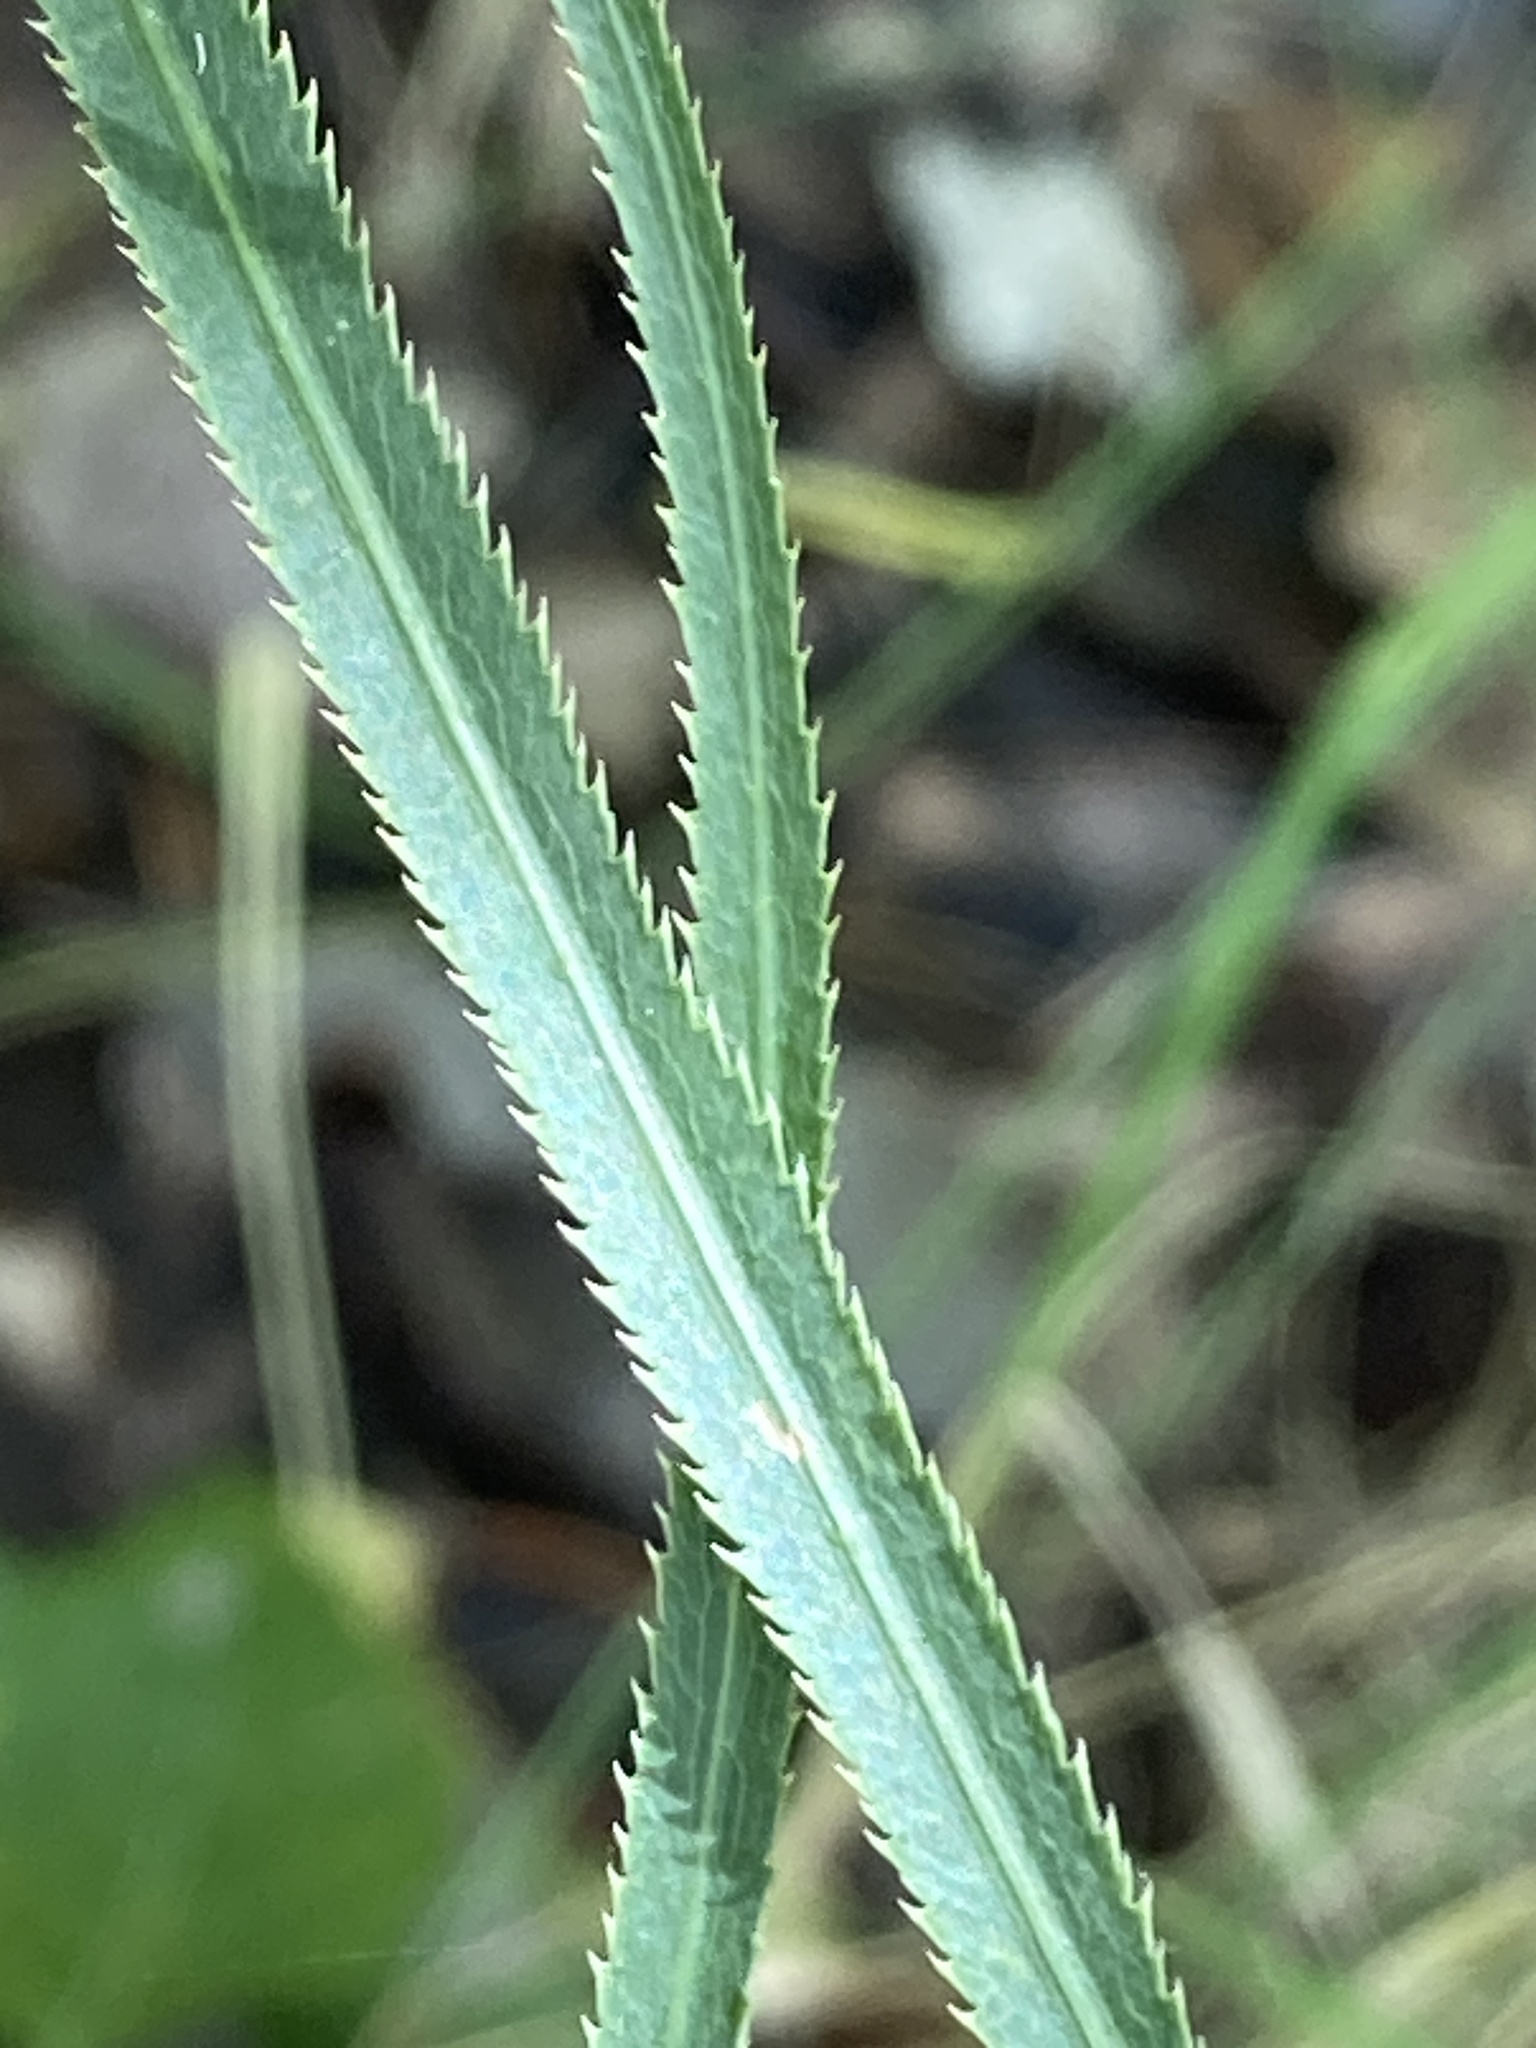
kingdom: Plantae
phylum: Tracheophyta
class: Magnoliopsida
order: Apiales
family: Apiaceae
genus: Falcaria
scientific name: Falcaria vulgaris
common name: Longleaf
